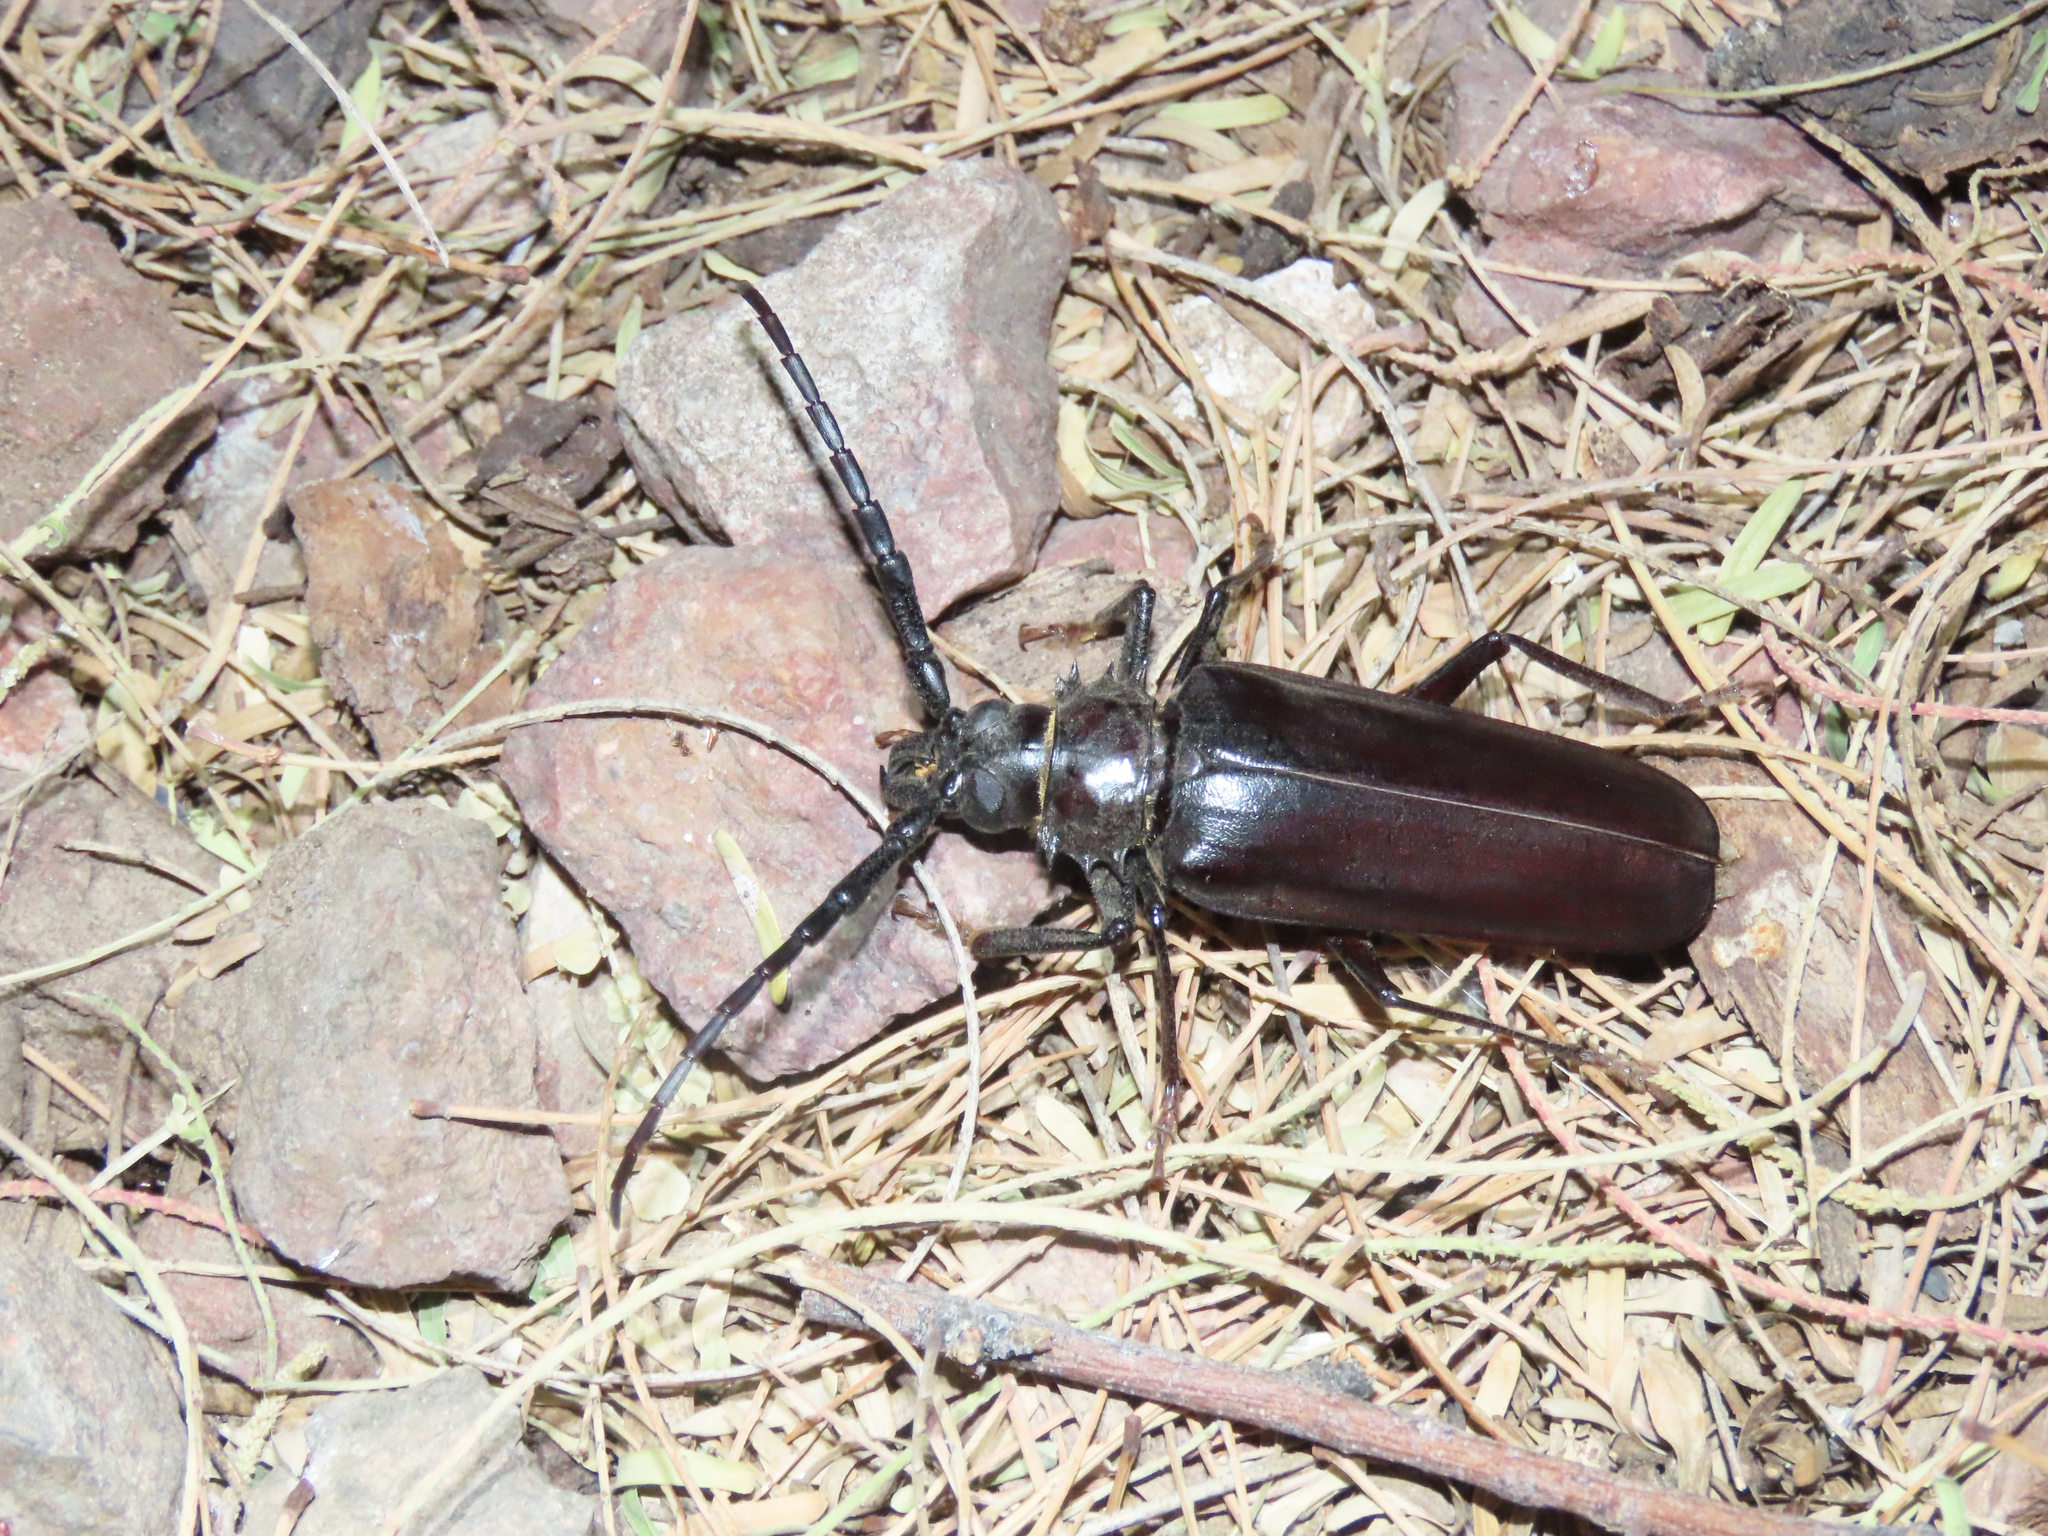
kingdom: Animalia
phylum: Arthropoda
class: Insecta
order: Coleoptera
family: Cerambycidae
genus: Derobrachus
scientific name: Derobrachus hovorei
